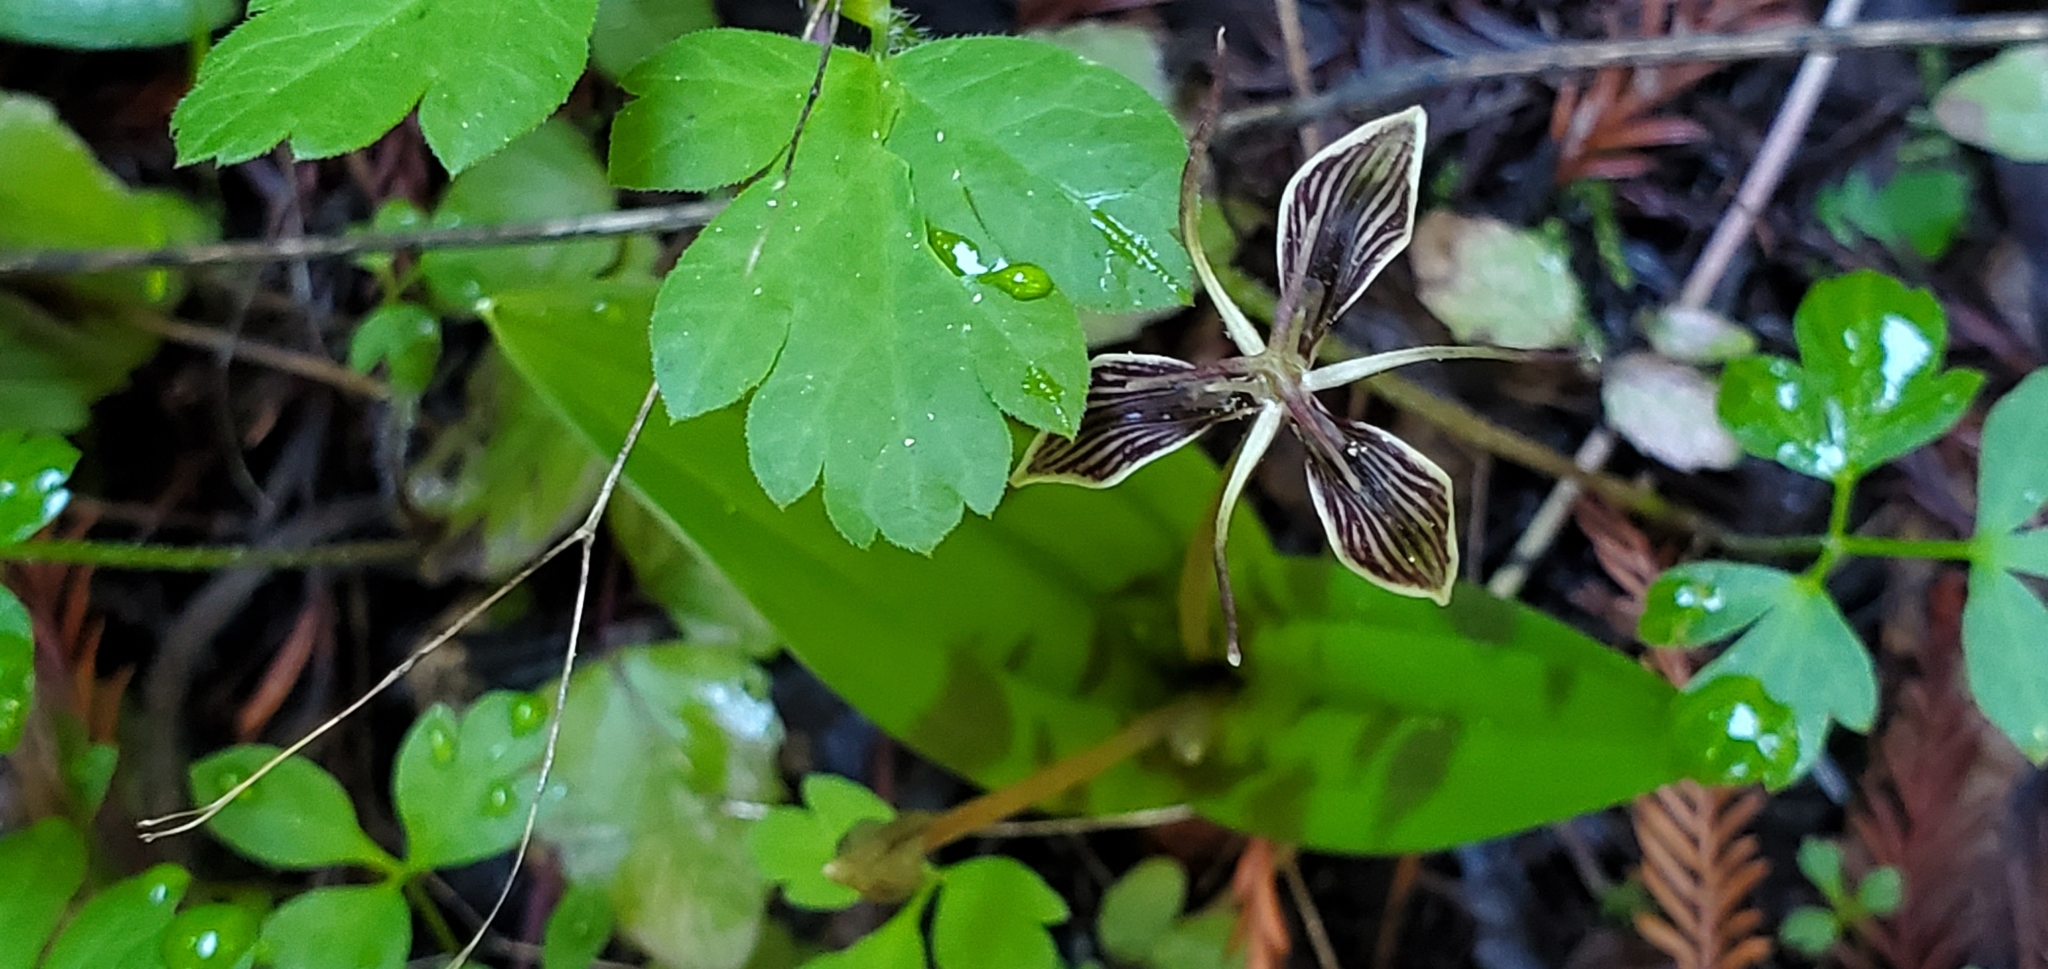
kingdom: Plantae
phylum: Tracheophyta
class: Liliopsida
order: Liliales
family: Liliaceae
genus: Scoliopus
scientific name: Scoliopus bigelovii
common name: Foetid adder's-tongue
